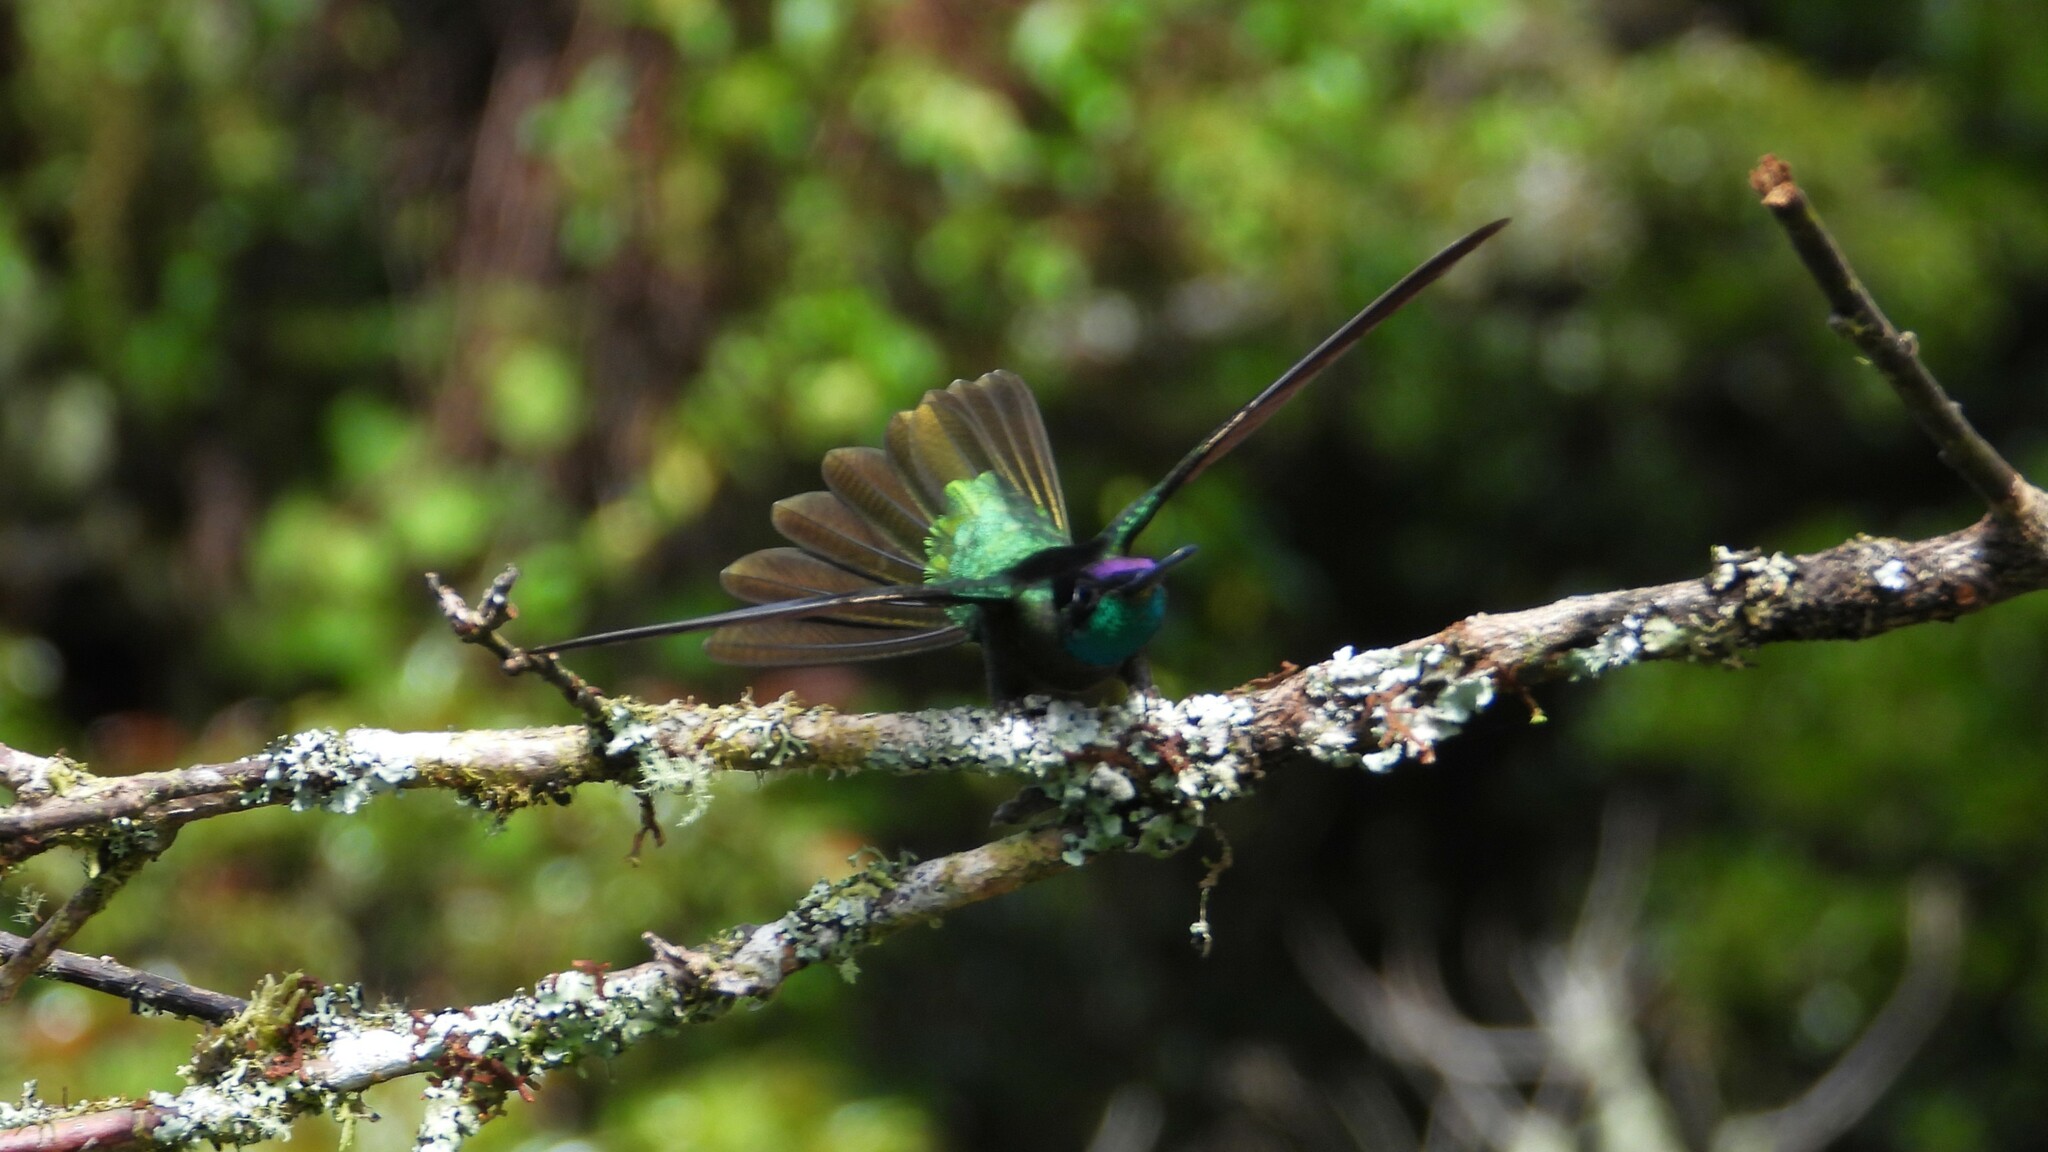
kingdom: Animalia
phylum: Chordata
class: Aves
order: Apodiformes
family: Trochilidae
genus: Eugenes
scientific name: Eugenes spectabilis
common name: Talamanca hummingbird
